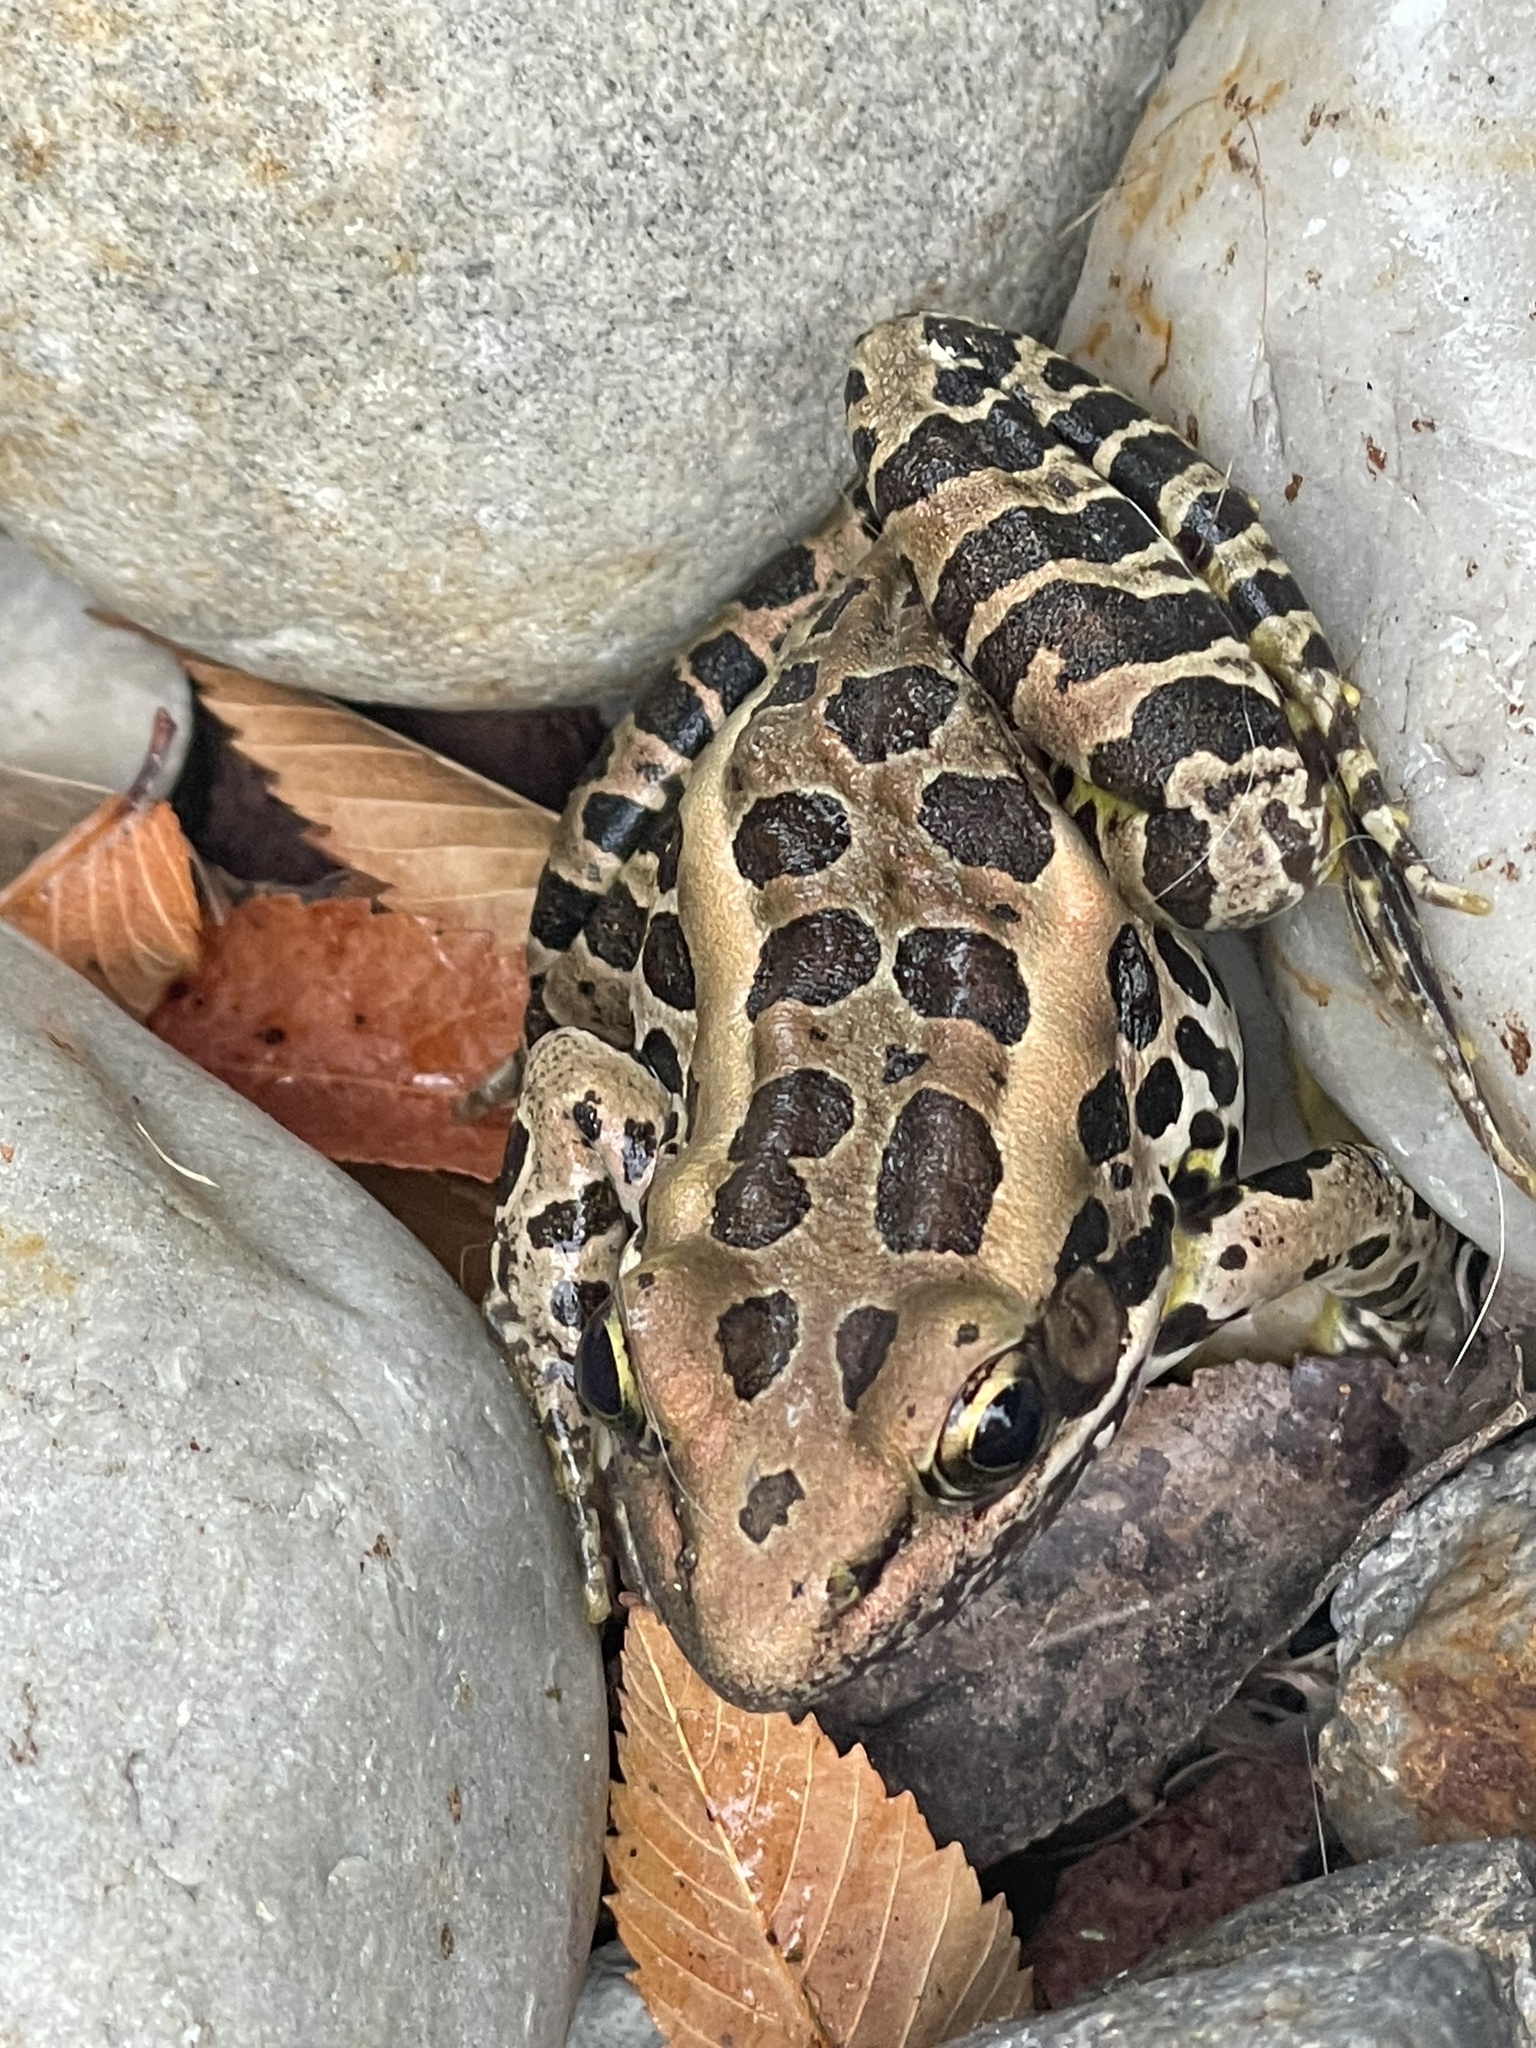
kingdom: Animalia
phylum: Chordata
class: Amphibia
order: Anura
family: Ranidae
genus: Lithobates
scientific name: Lithobates palustris
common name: Pickerel frog
